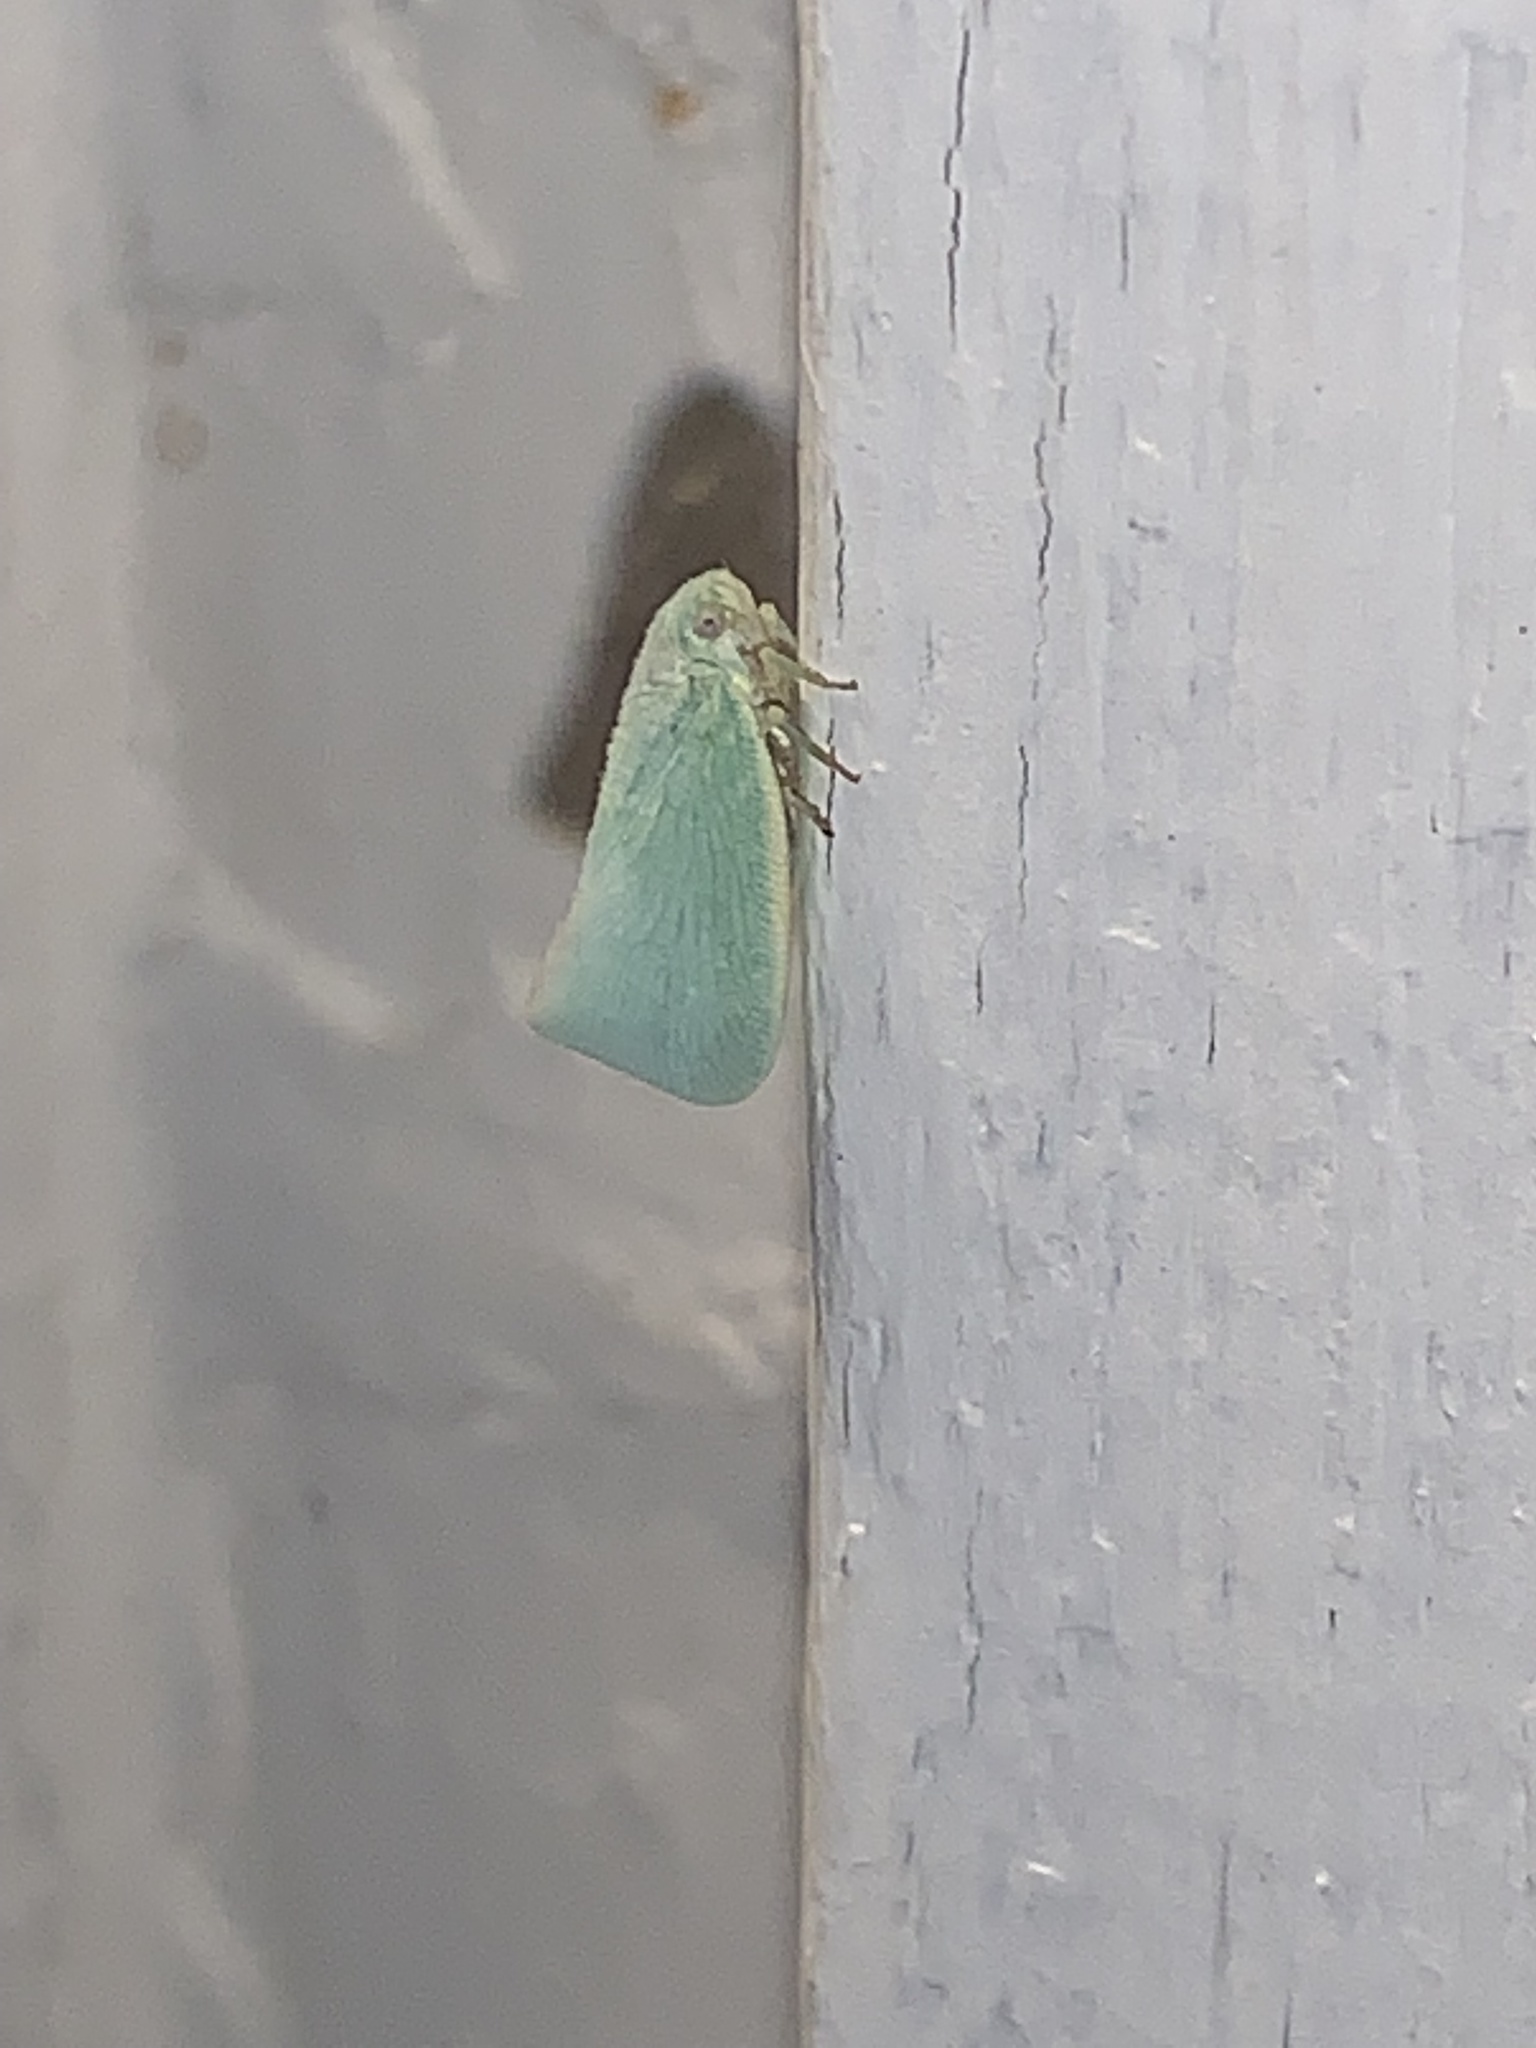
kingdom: Animalia
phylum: Arthropoda
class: Insecta
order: Hemiptera
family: Flatidae
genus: Flatormenis
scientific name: Flatormenis proxima
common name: Northern flatid planthopper
